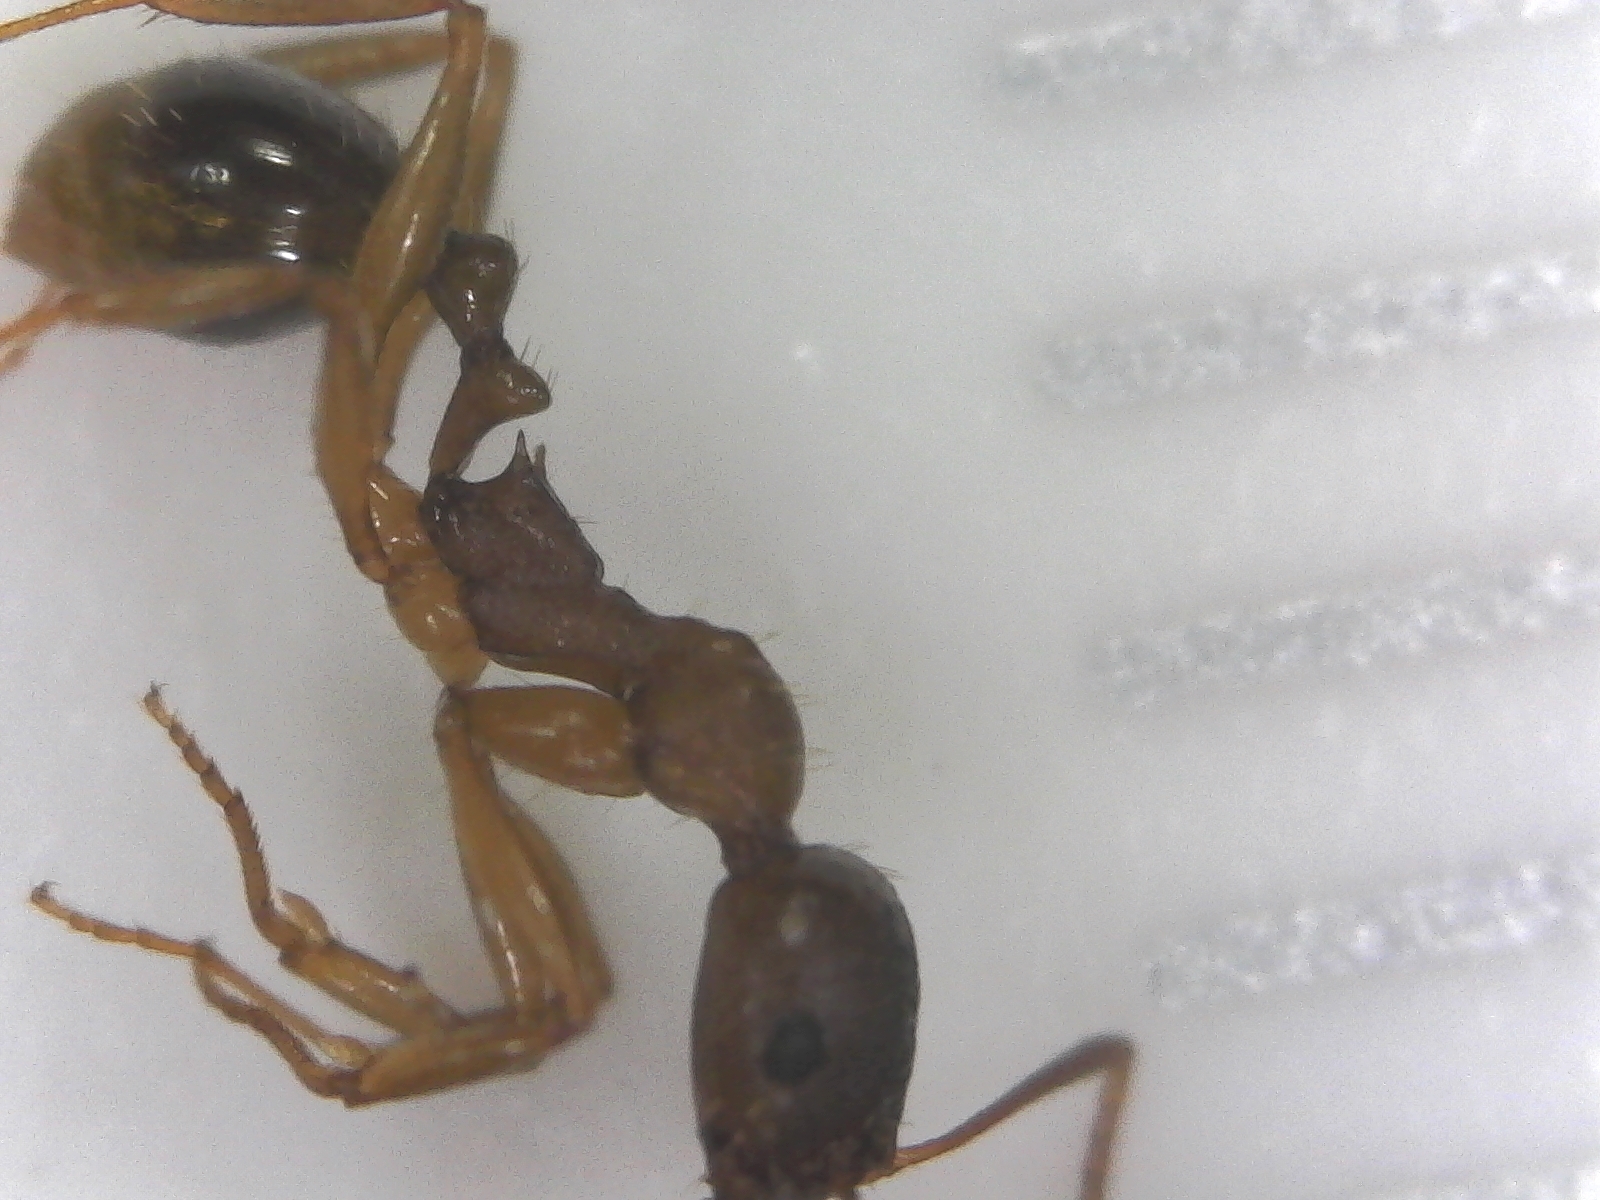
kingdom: Animalia
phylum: Arthropoda
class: Insecta
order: Hymenoptera
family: Formicidae
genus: Aphaenogaster
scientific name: Aphaenogaster rudis
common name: Winnow ant
